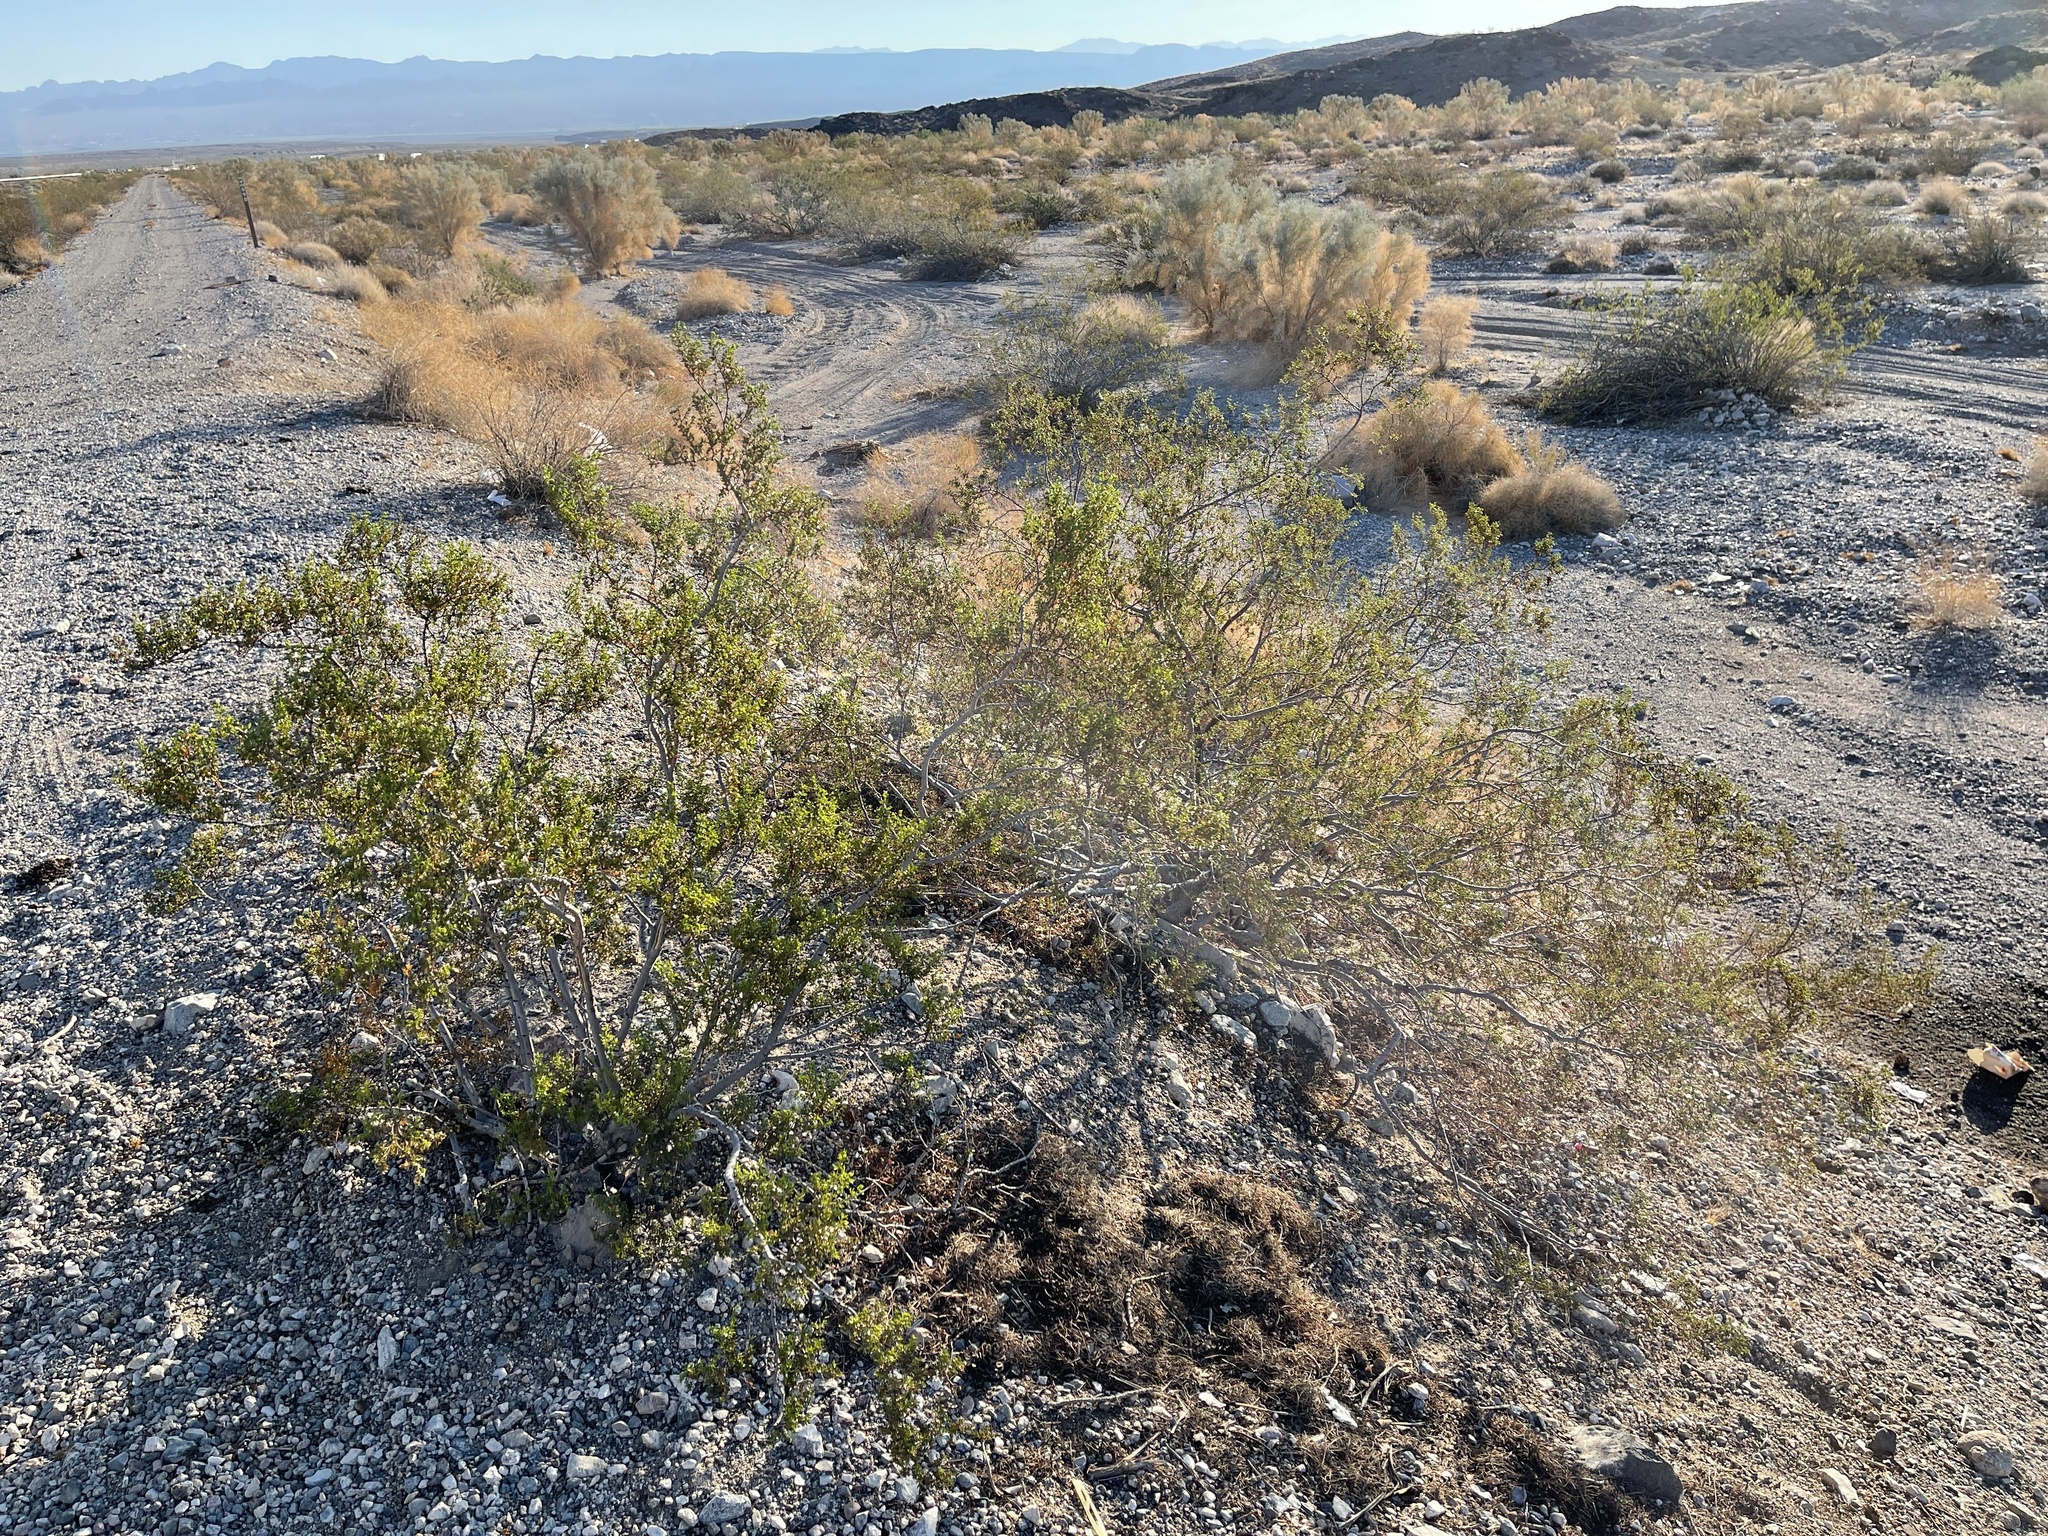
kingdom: Plantae
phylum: Tracheophyta
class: Magnoliopsida
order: Zygophyllales
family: Zygophyllaceae
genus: Larrea
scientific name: Larrea tridentata
